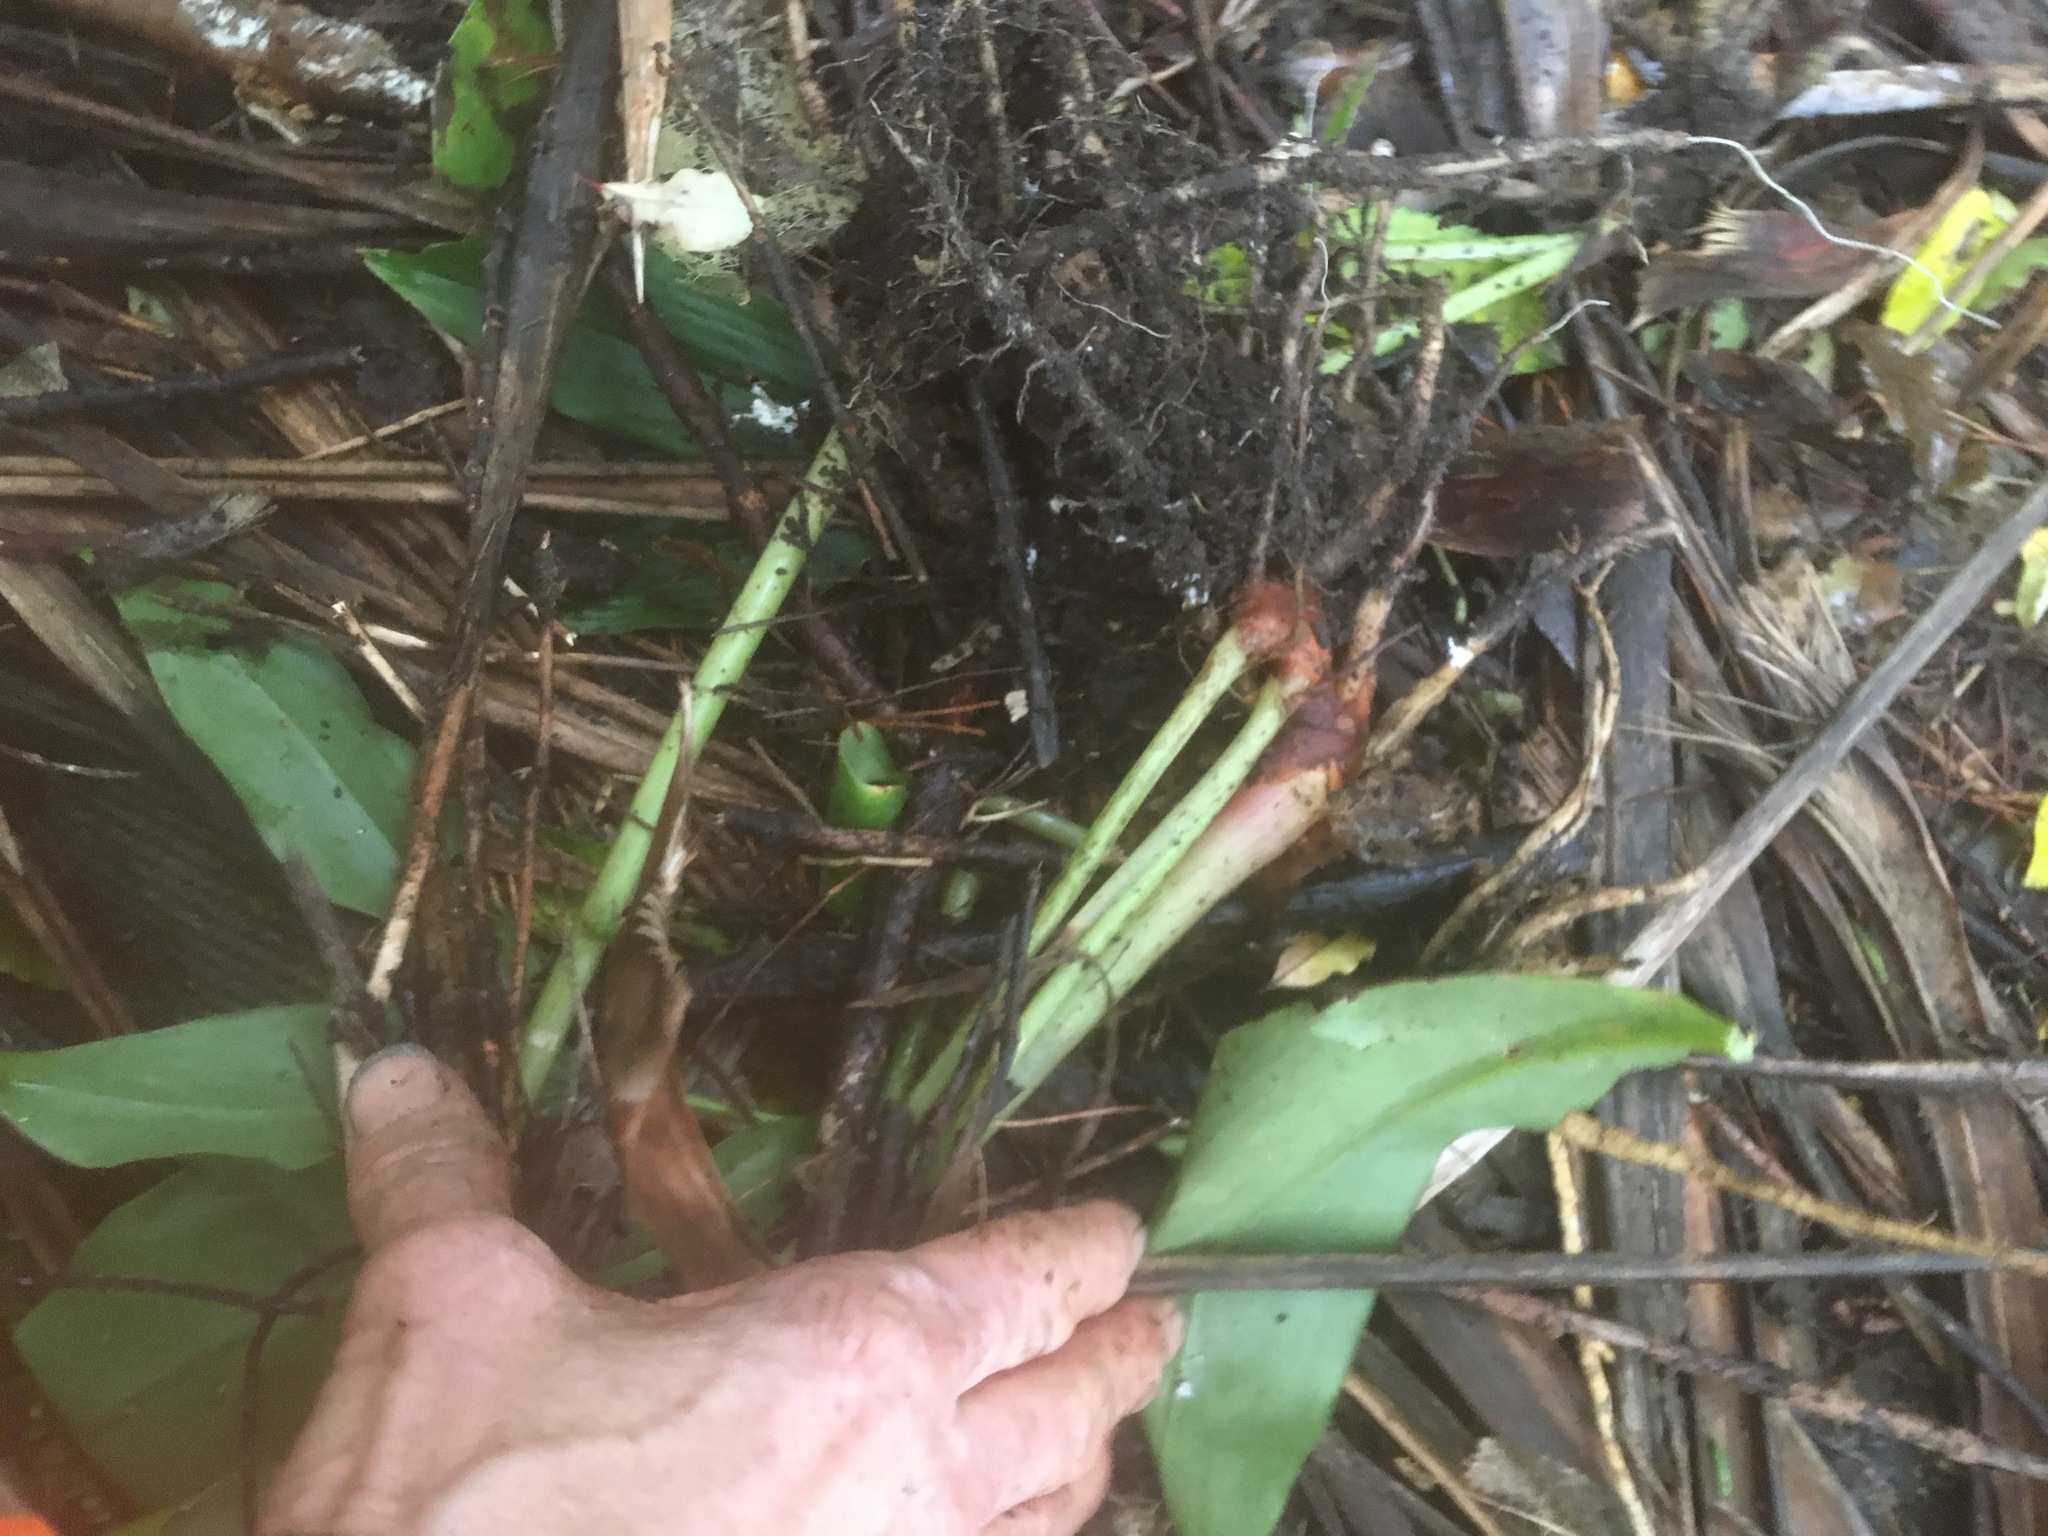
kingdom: Plantae
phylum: Tracheophyta
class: Liliopsida
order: Zingiberales
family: Zingiberaceae
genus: Hedychium
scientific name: Hedychium gardnerianum
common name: Himalayan ginger
